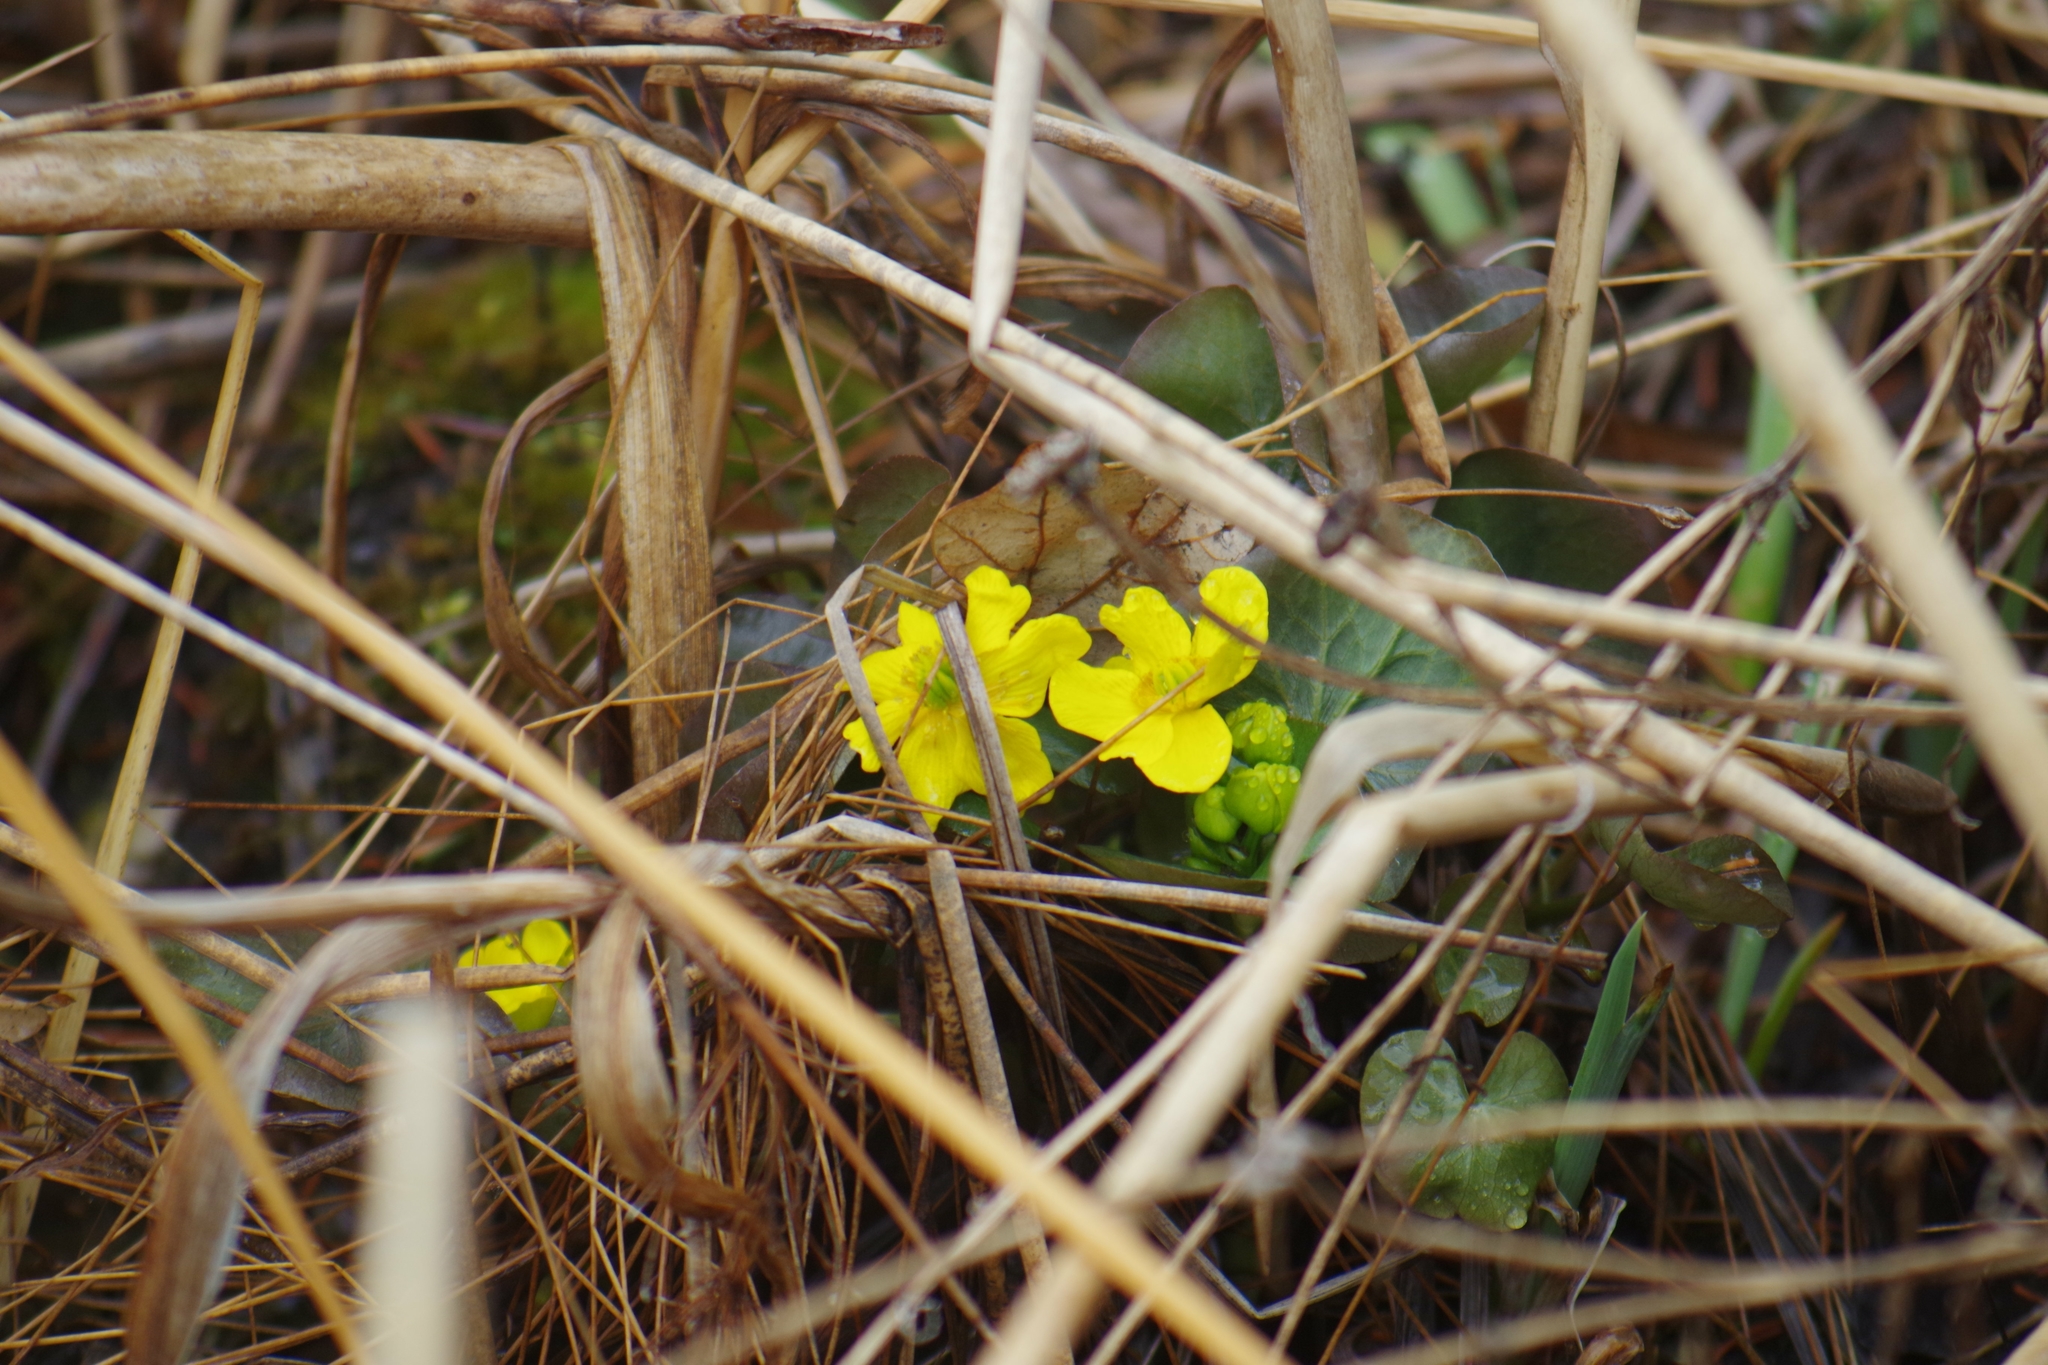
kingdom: Plantae
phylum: Tracheophyta
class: Magnoliopsida
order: Ranunculales
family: Ranunculaceae
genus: Caltha
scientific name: Caltha palustris
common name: Marsh marigold
